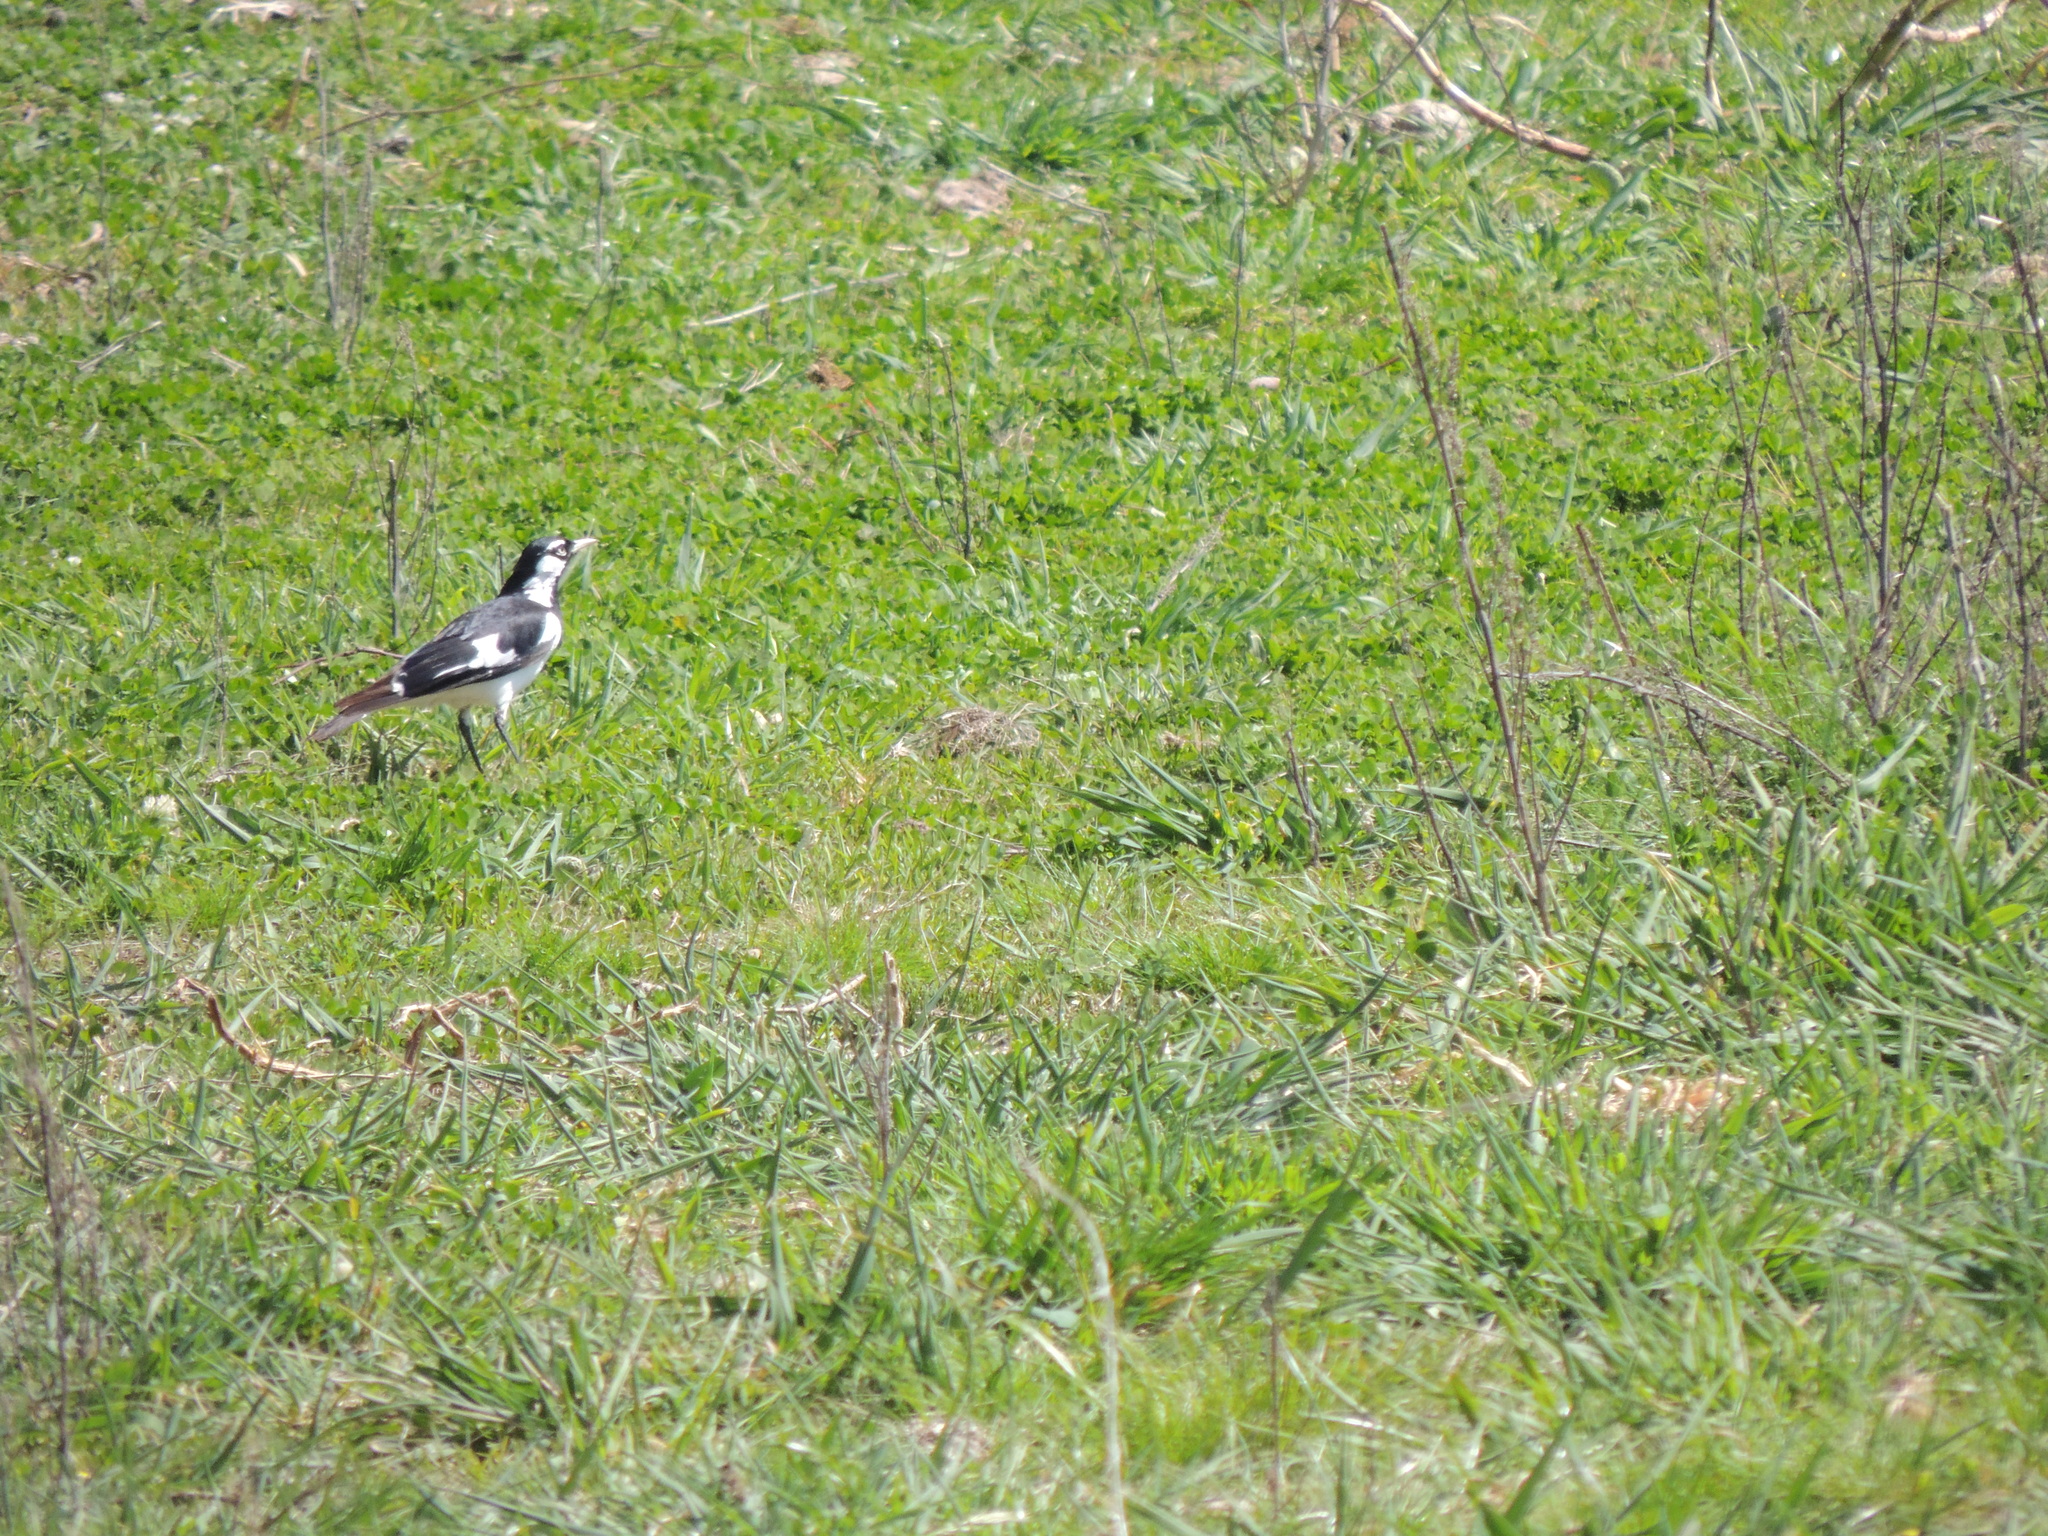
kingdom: Animalia
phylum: Chordata
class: Aves
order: Passeriformes
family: Monarchidae
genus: Grallina
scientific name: Grallina cyanoleuca
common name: Magpie-lark
